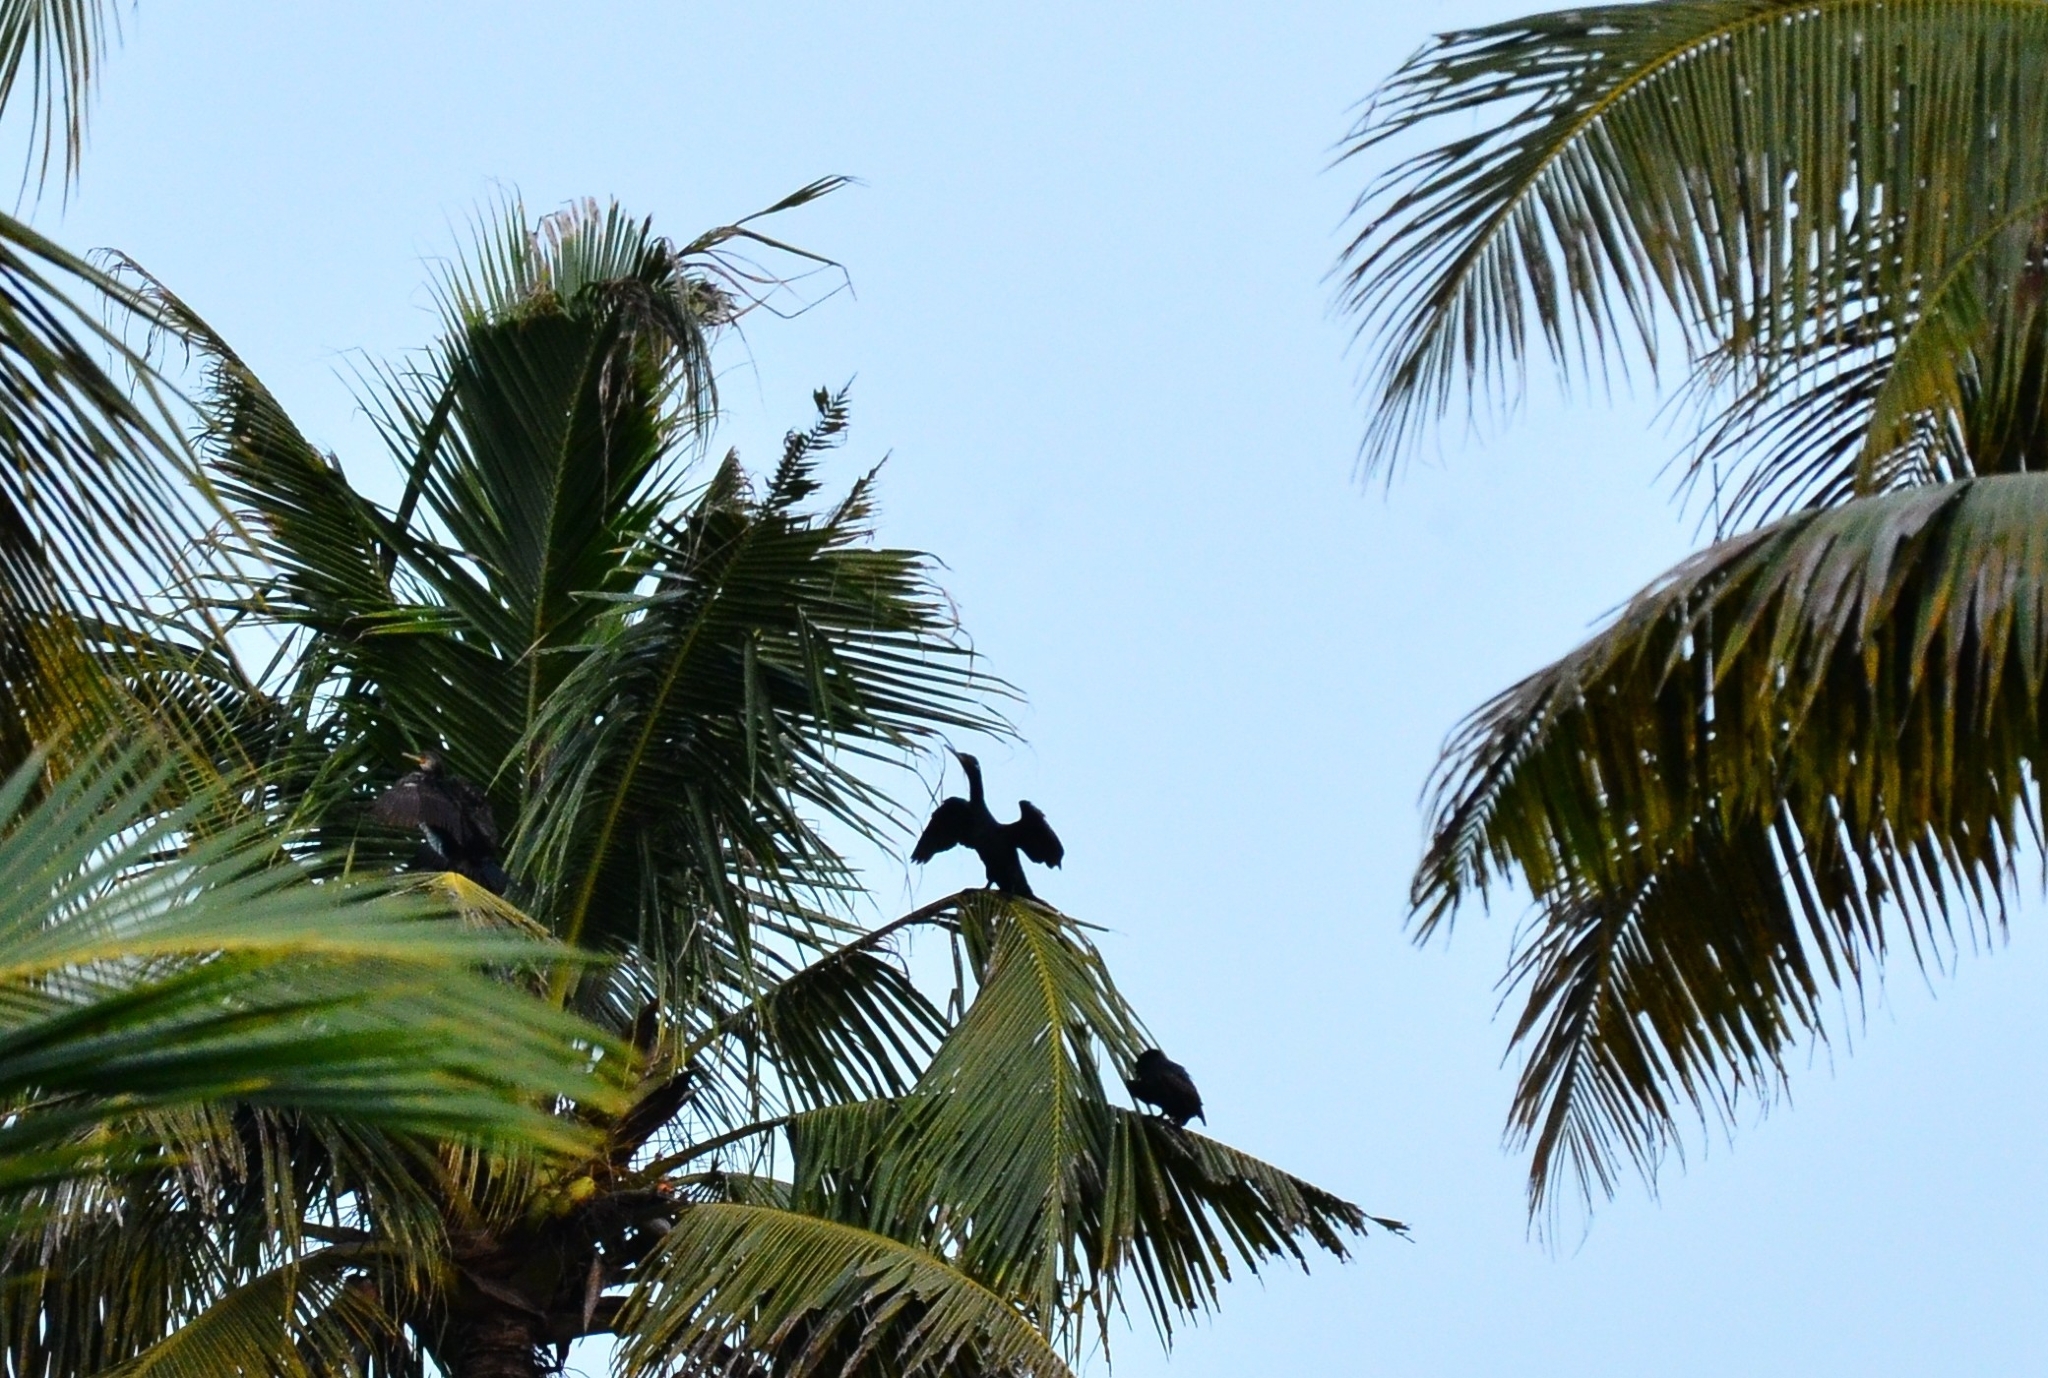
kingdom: Animalia
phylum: Chordata
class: Aves
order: Suliformes
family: Phalacrocoracidae
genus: Phalacrocorax
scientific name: Phalacrocorax fuscicollis
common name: Indian cormorant
